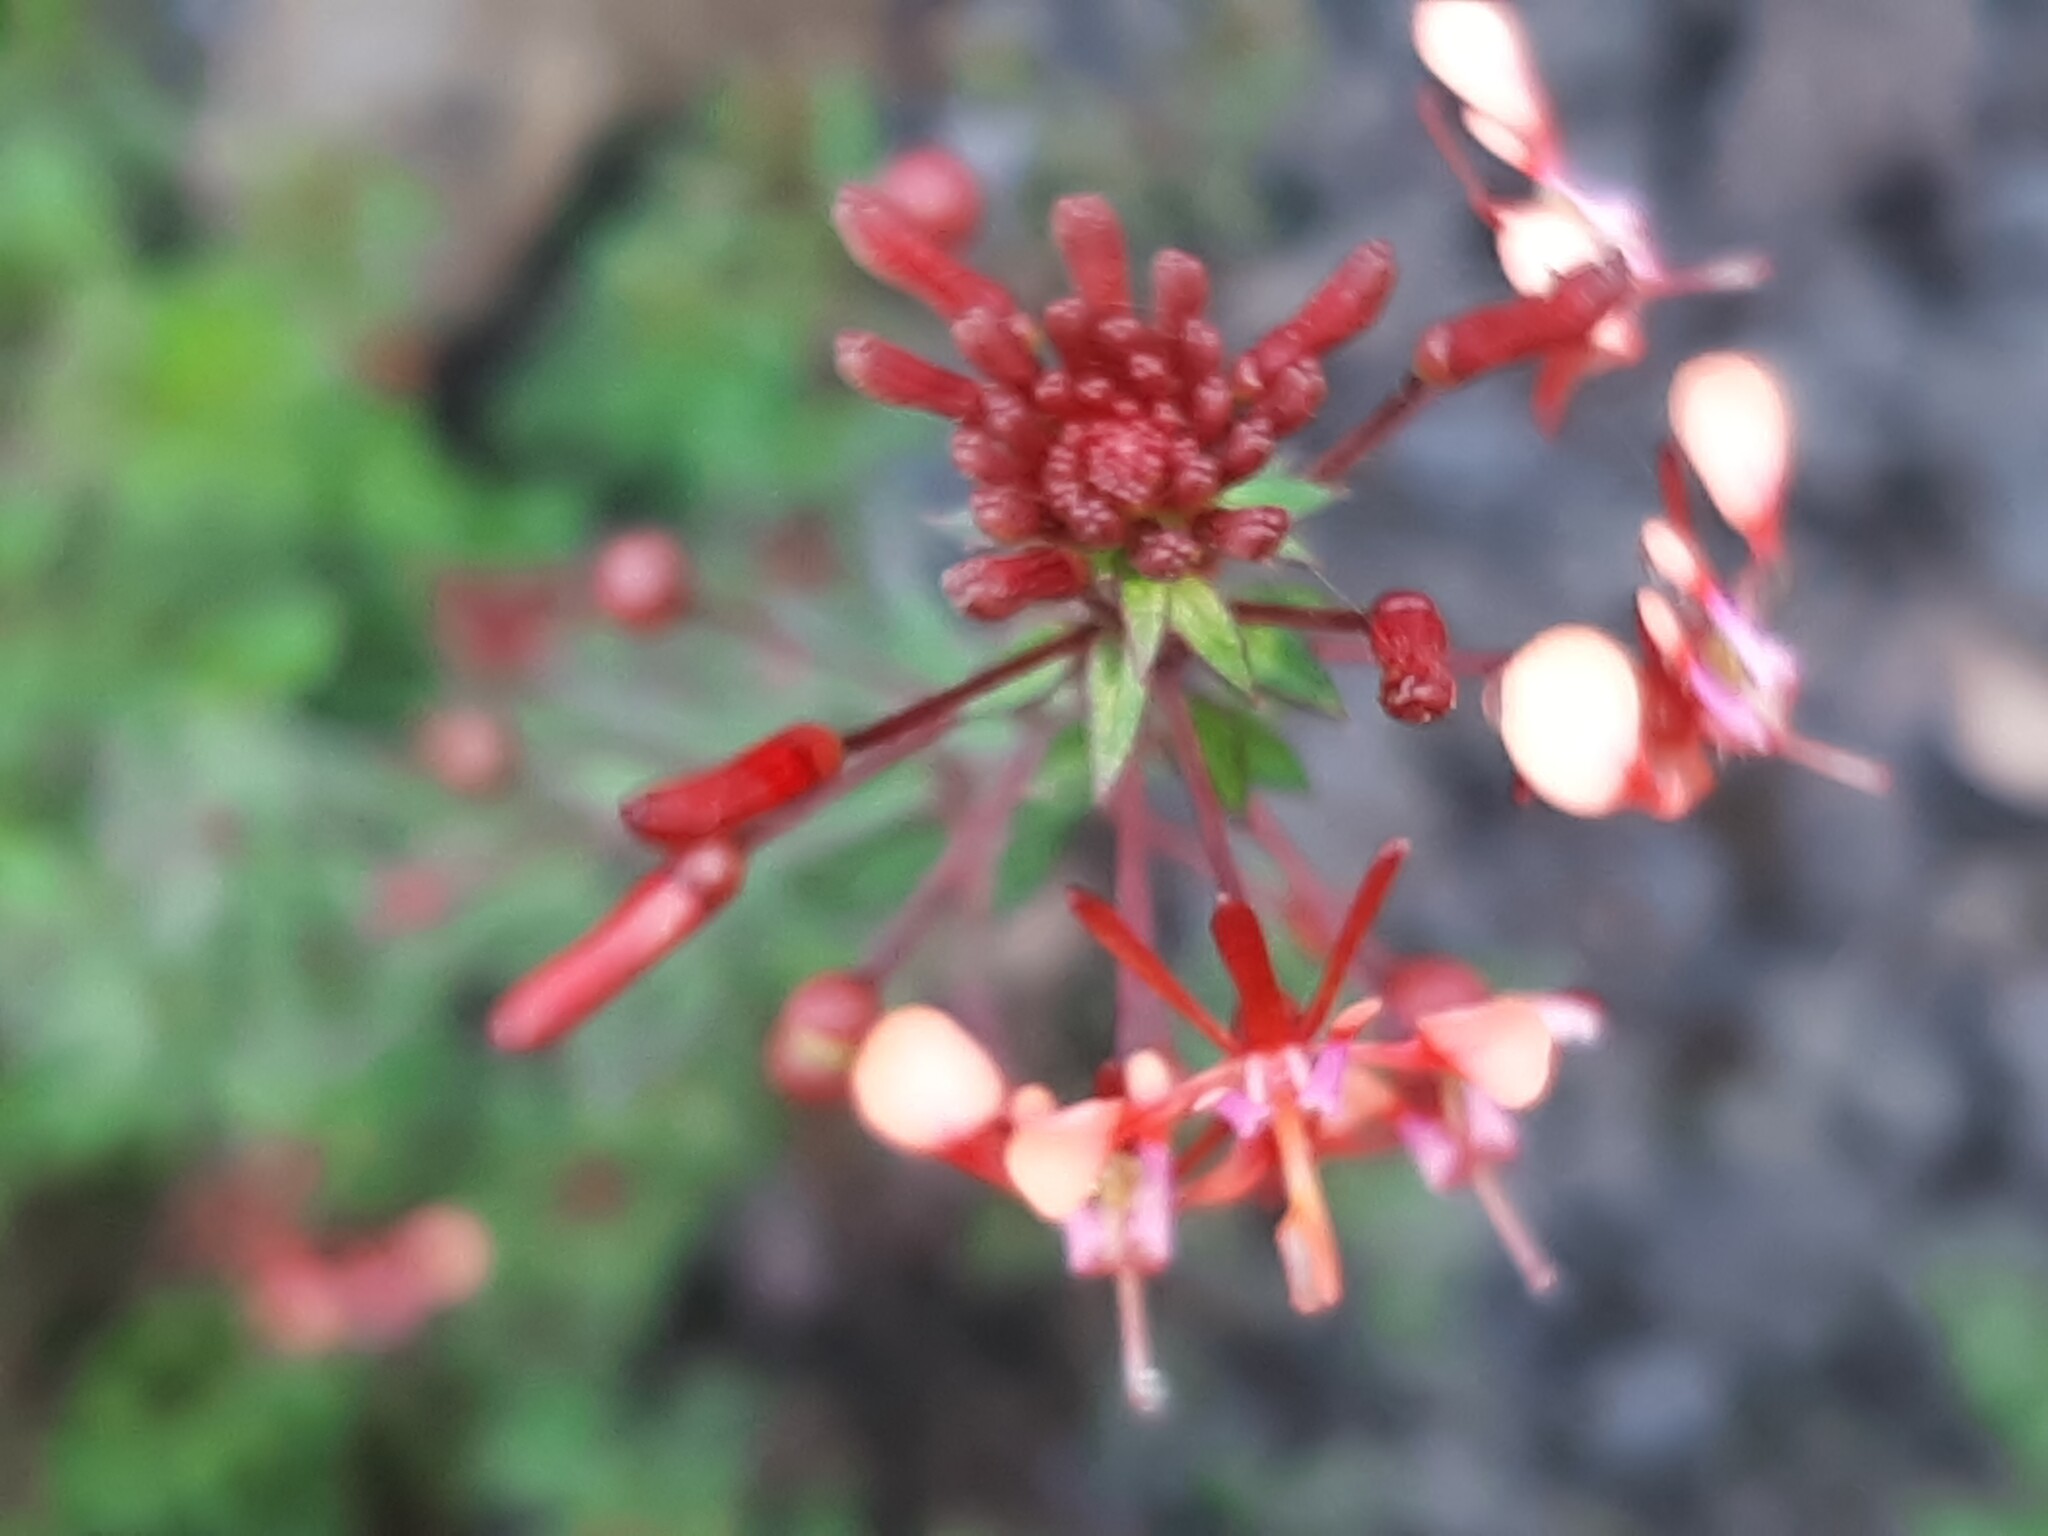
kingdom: Plantae
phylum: Tracheophyta
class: Magnoliopsida
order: Myrtales
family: Onagraceae
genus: Lopezia
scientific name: Lopezia racemosa
